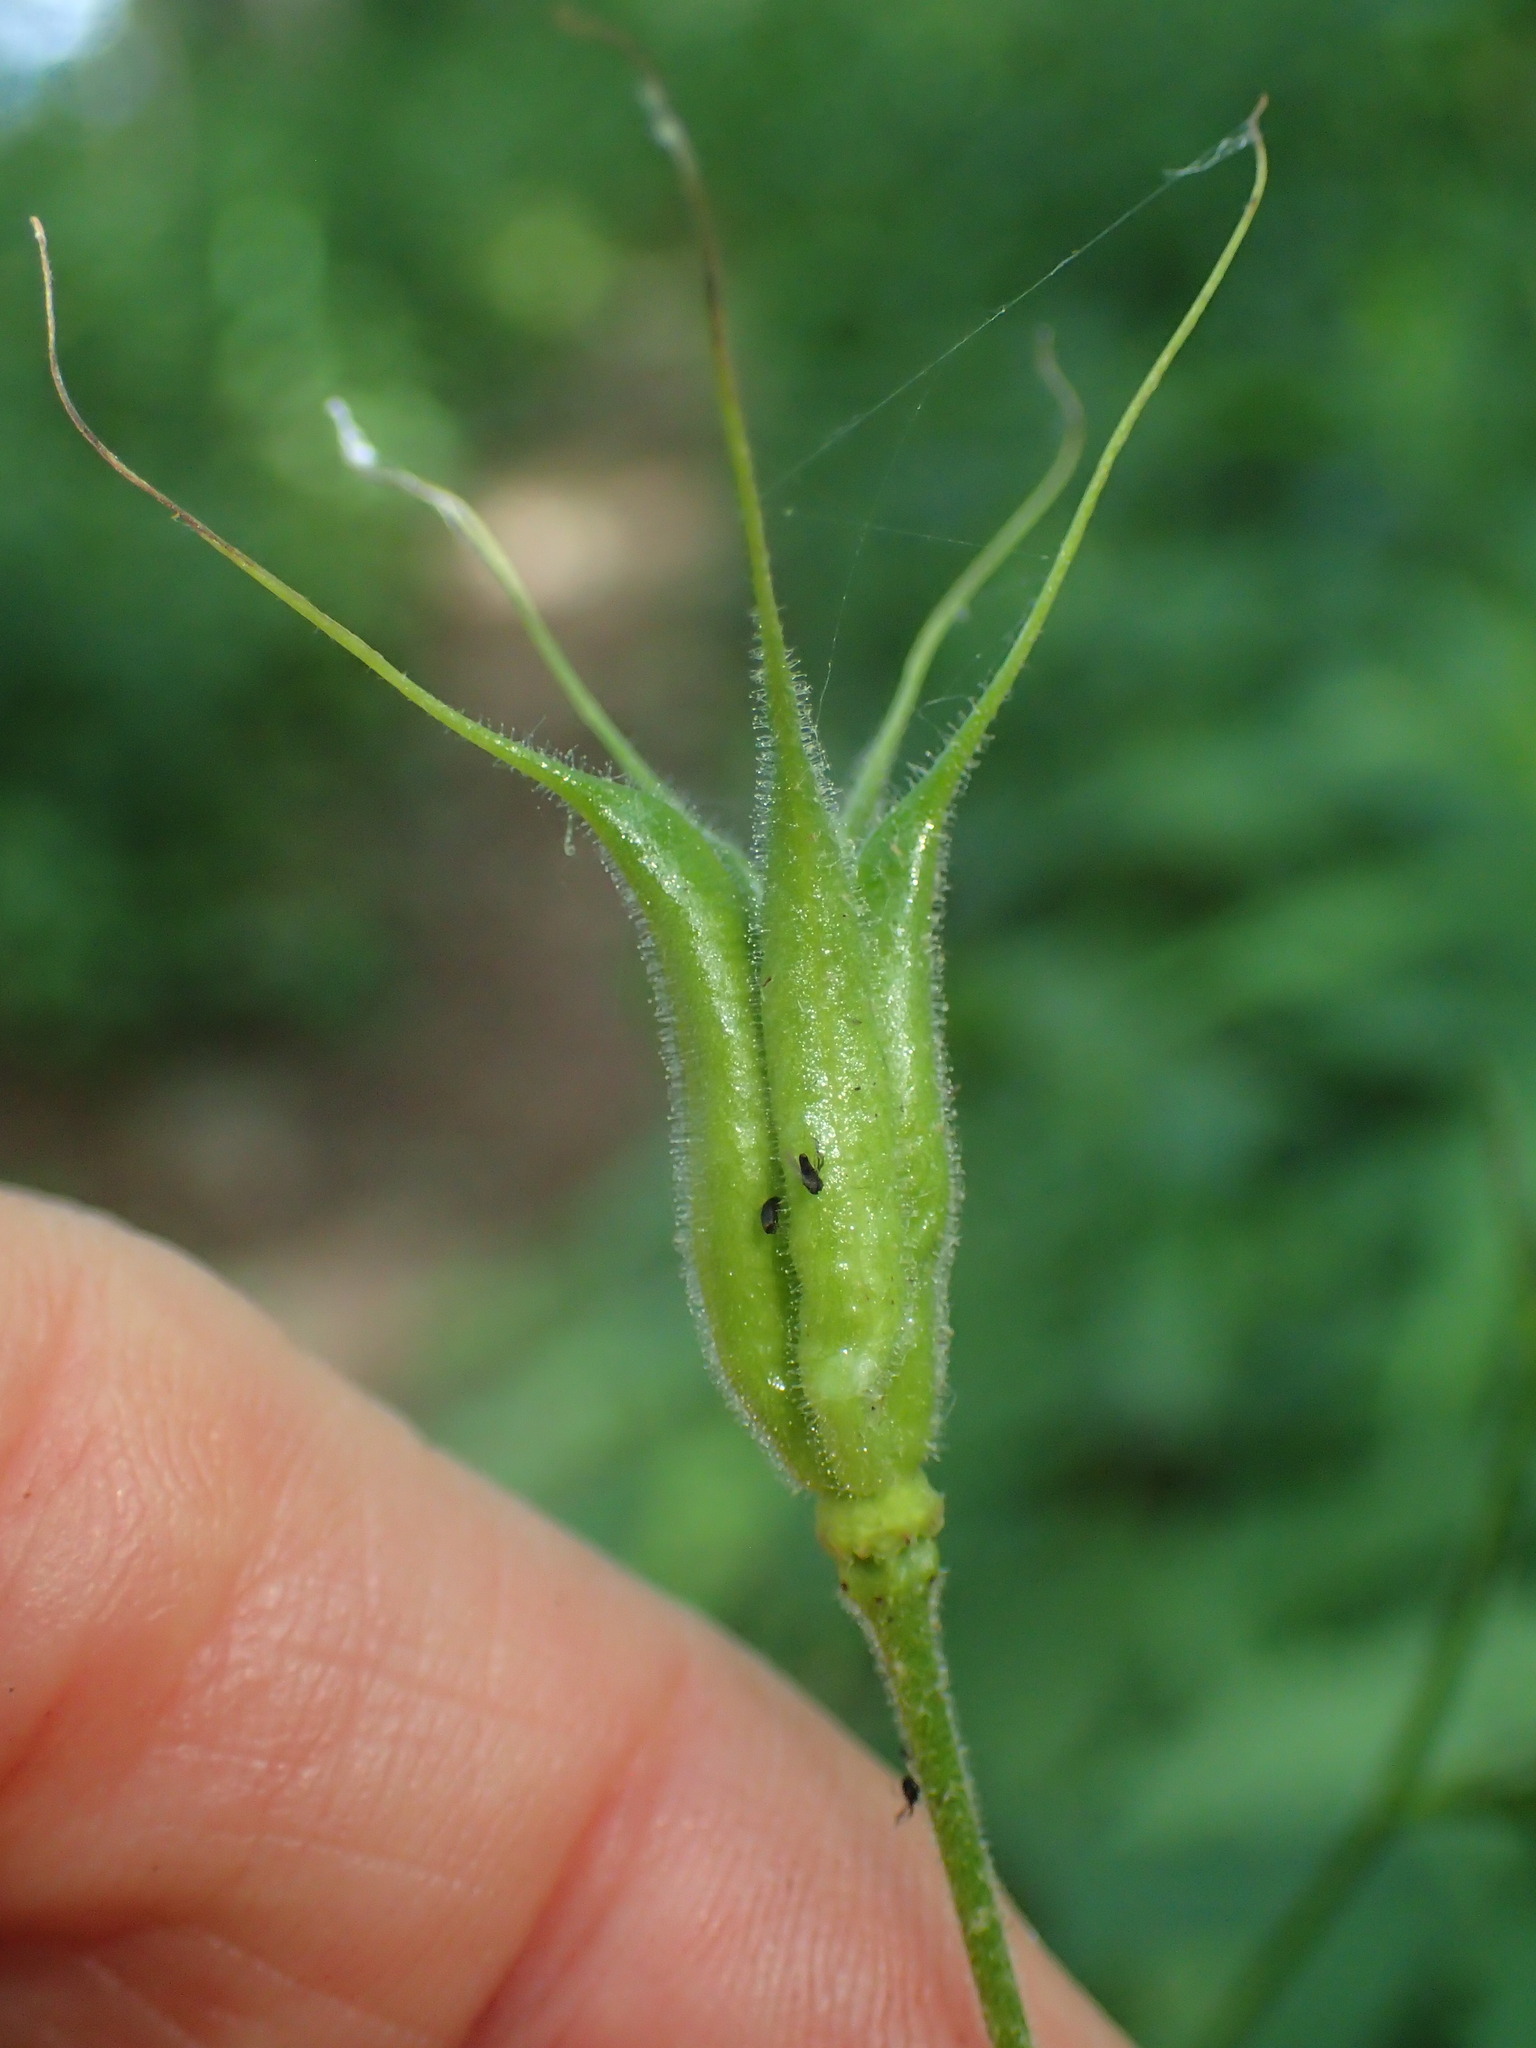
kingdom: Plantae
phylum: Tracheophyta
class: Magnoliopsida
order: Ranunculales
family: Ranunculaceae
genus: Aquilegia
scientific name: Aquilegia canadensis
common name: American columbine
